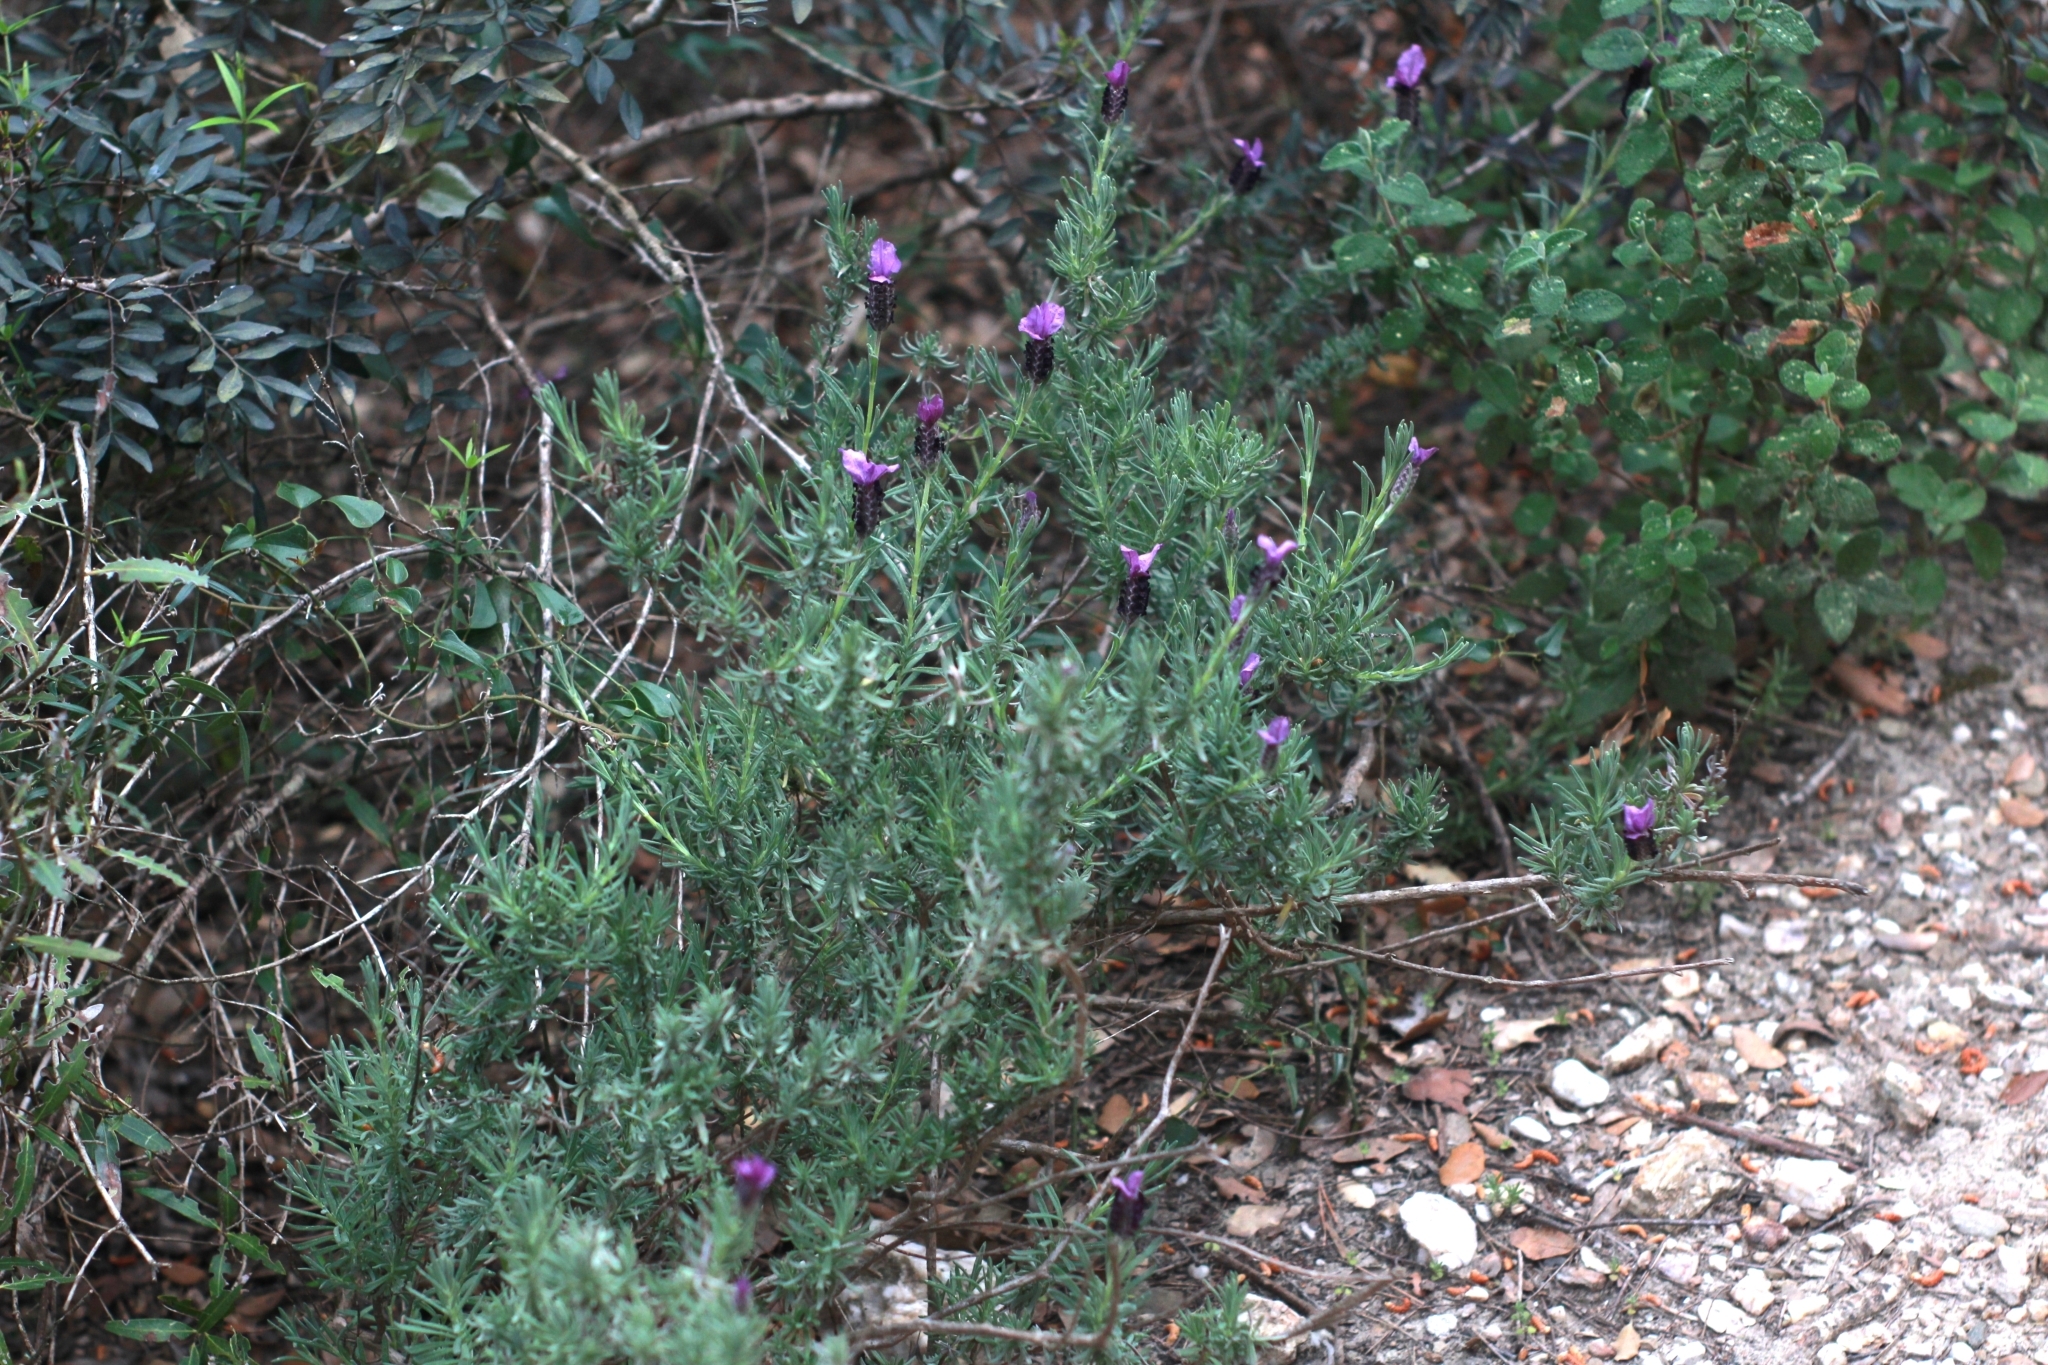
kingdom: Plantae
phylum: Tracheophyta
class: Magnoliopsida
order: Lamiales
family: Lamiaceae
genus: Lavandula
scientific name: Lavandula stoechas
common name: French lavender
